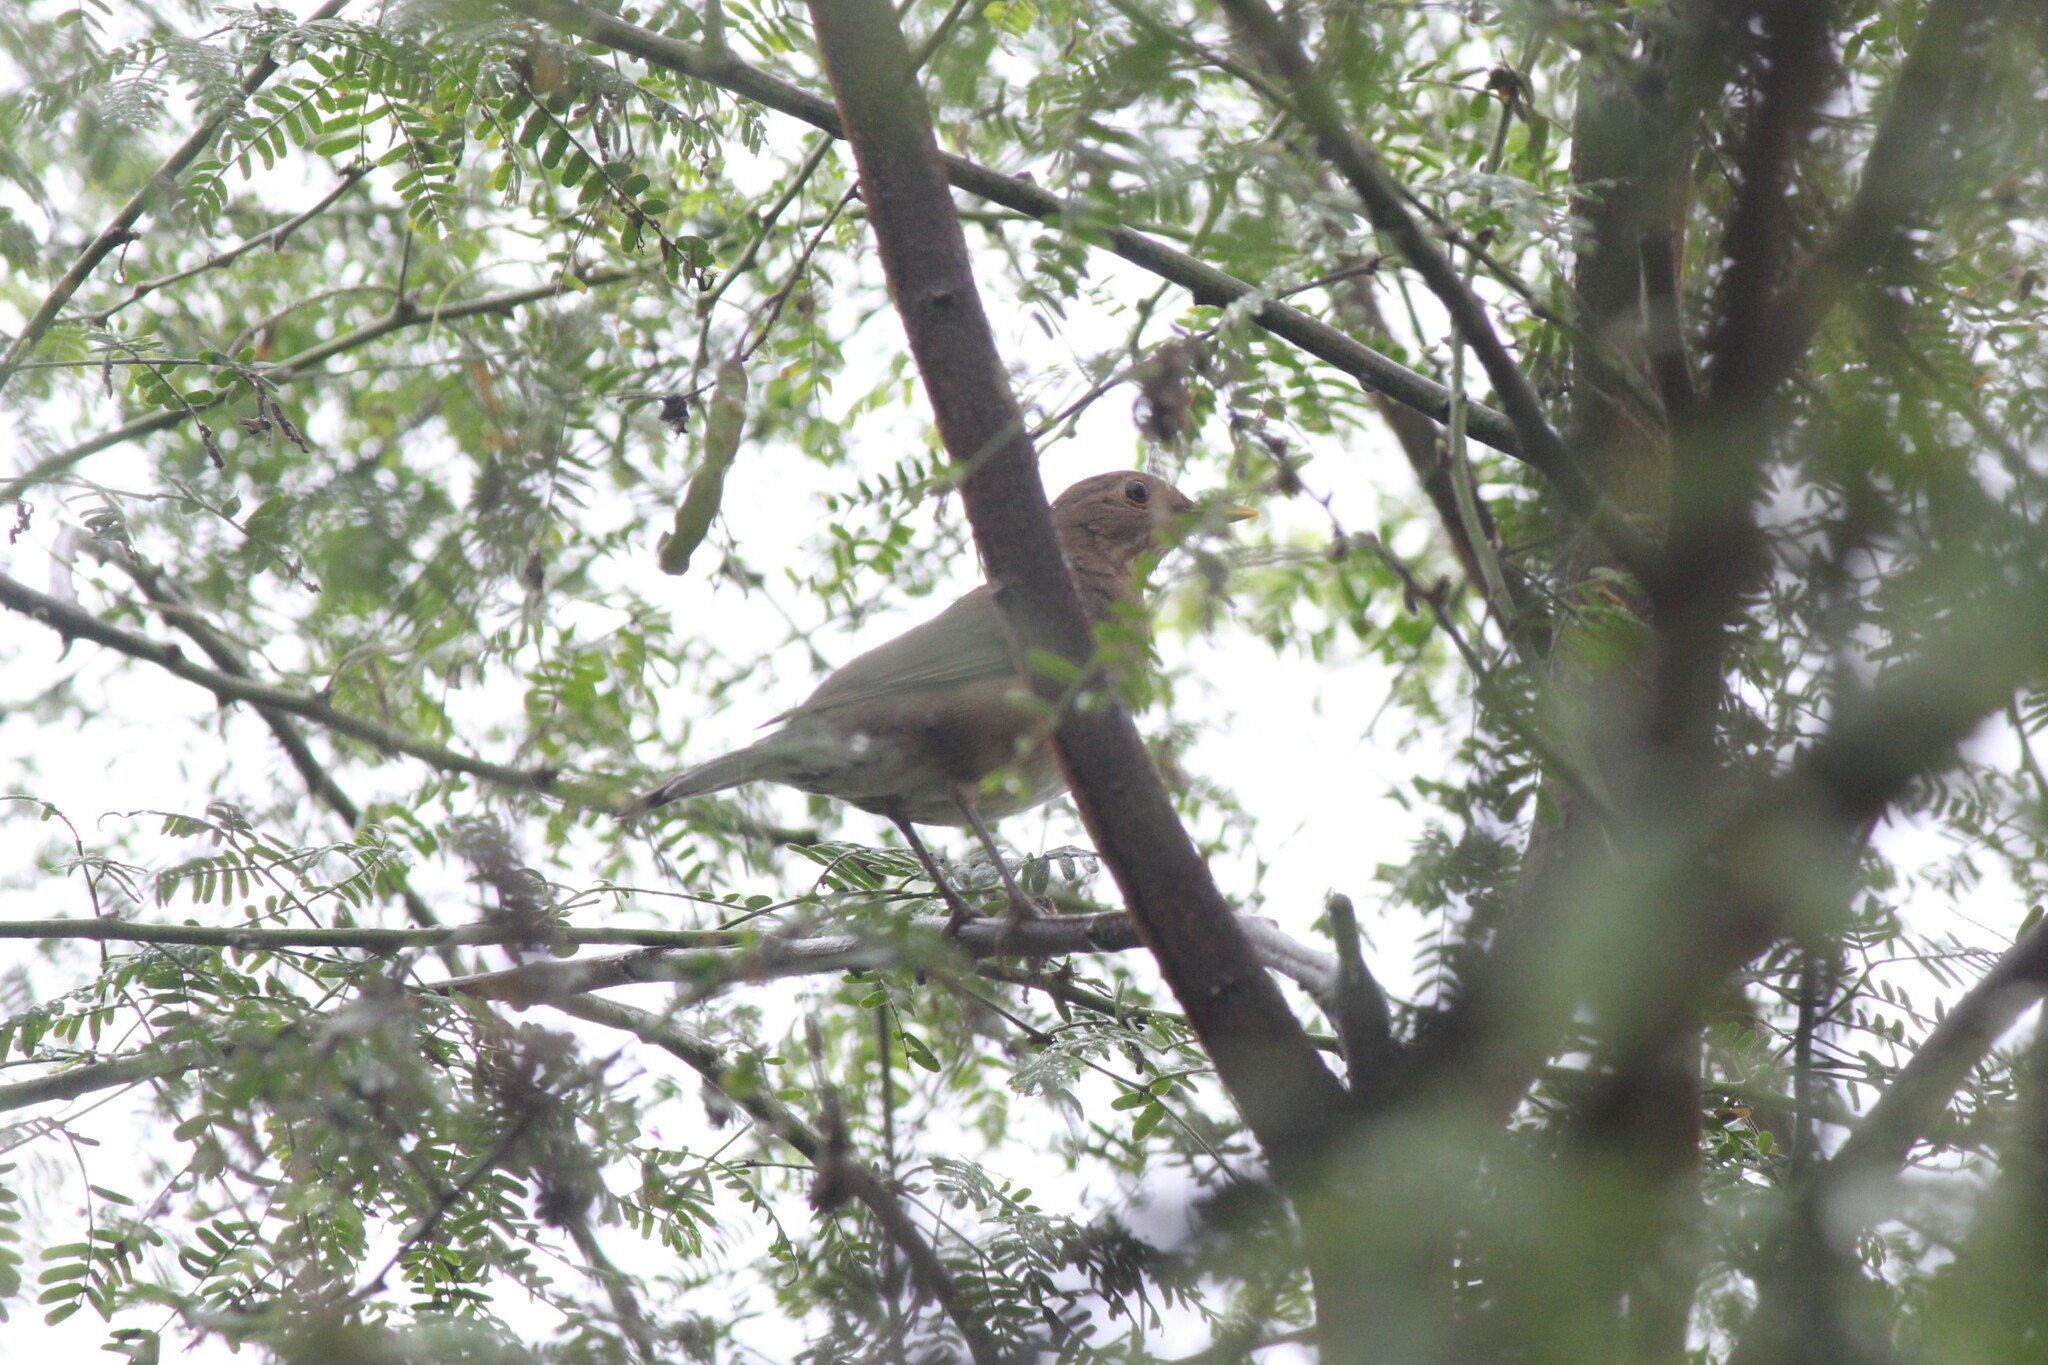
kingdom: Animalia
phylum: Chordata
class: Aves
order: Passeriformes
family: Turdidae
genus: Turdus
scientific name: Turdus maculirostris
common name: Ecuadorian thrush
